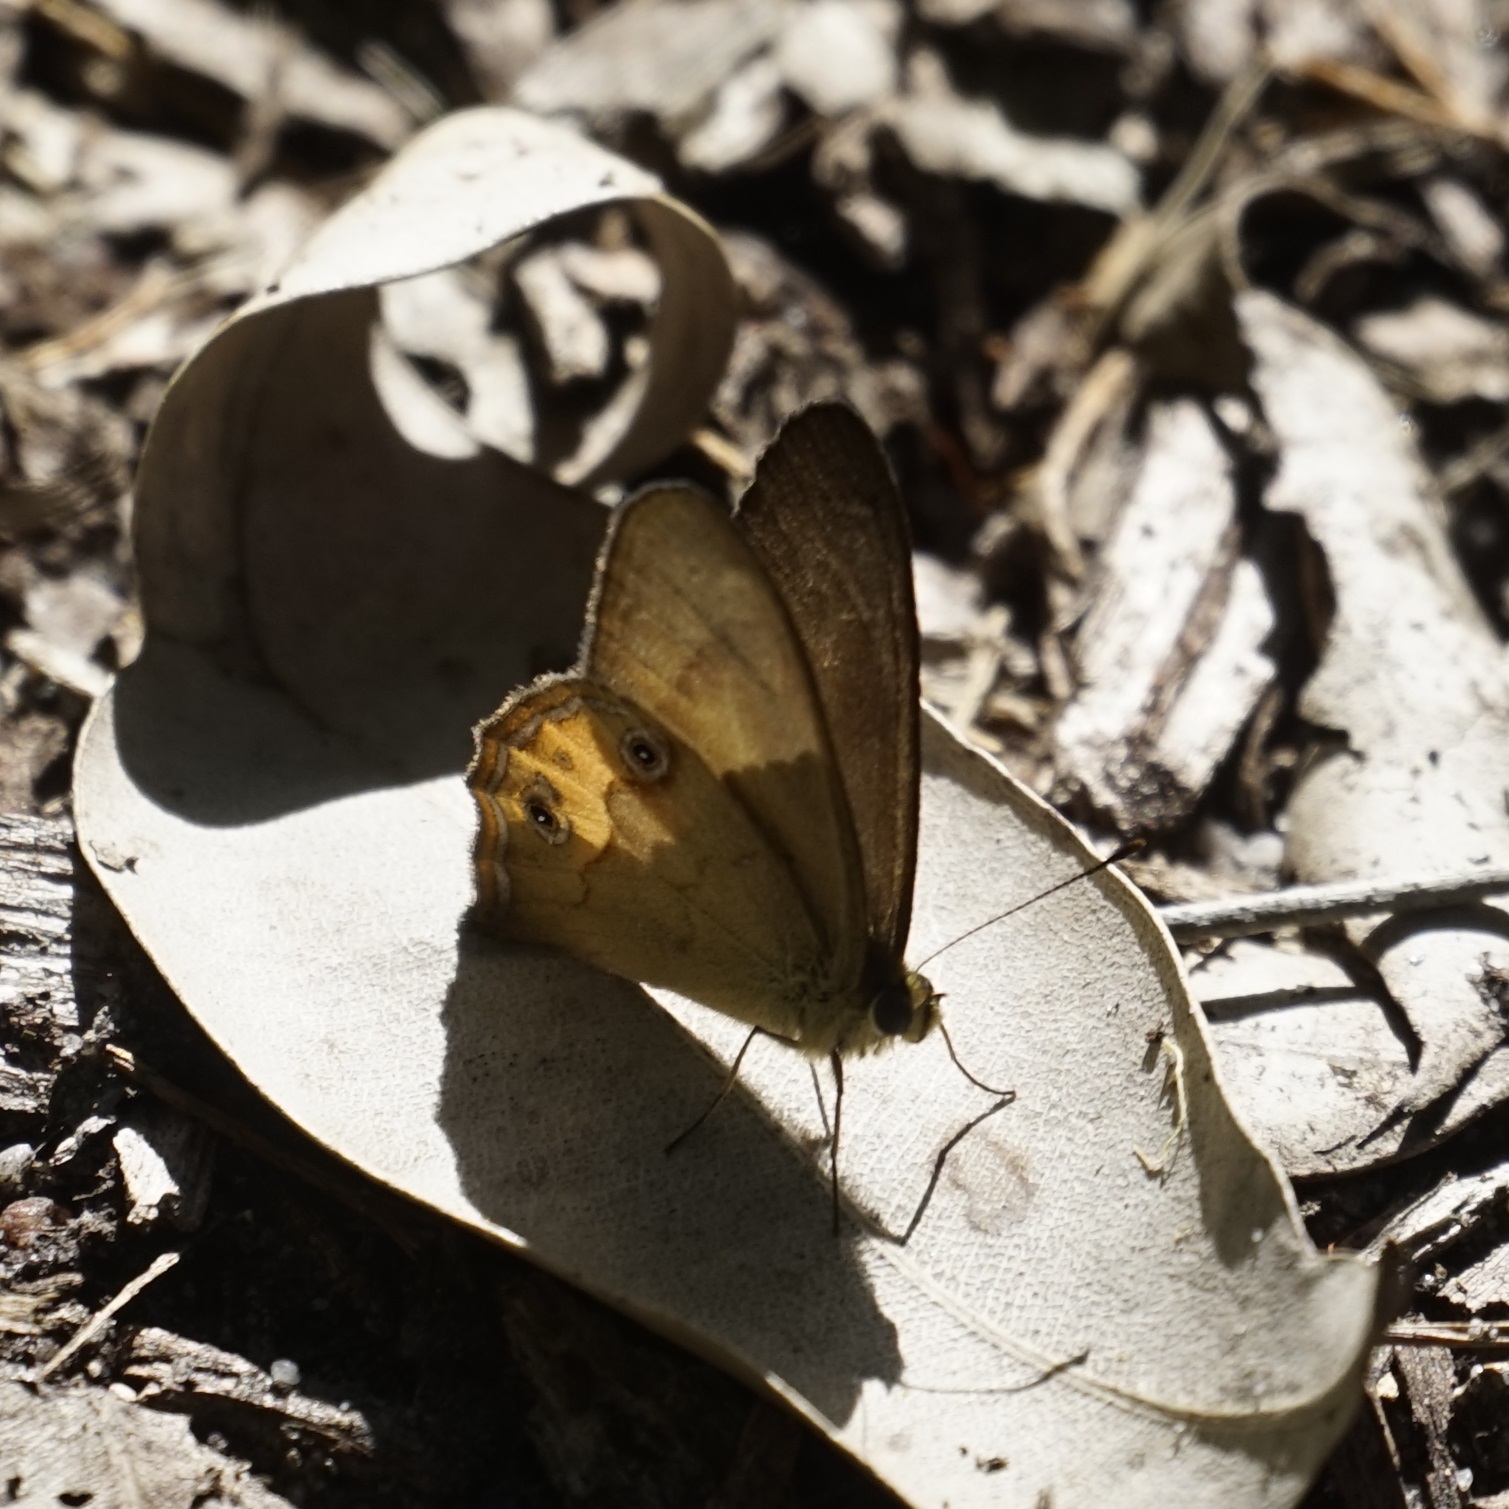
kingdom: Animalia
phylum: Arthropoda
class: Insecta
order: Lepidoptera
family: Nymphalidae
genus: Hypocysta
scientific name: Hypocysta metirius
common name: Brown ringlet
